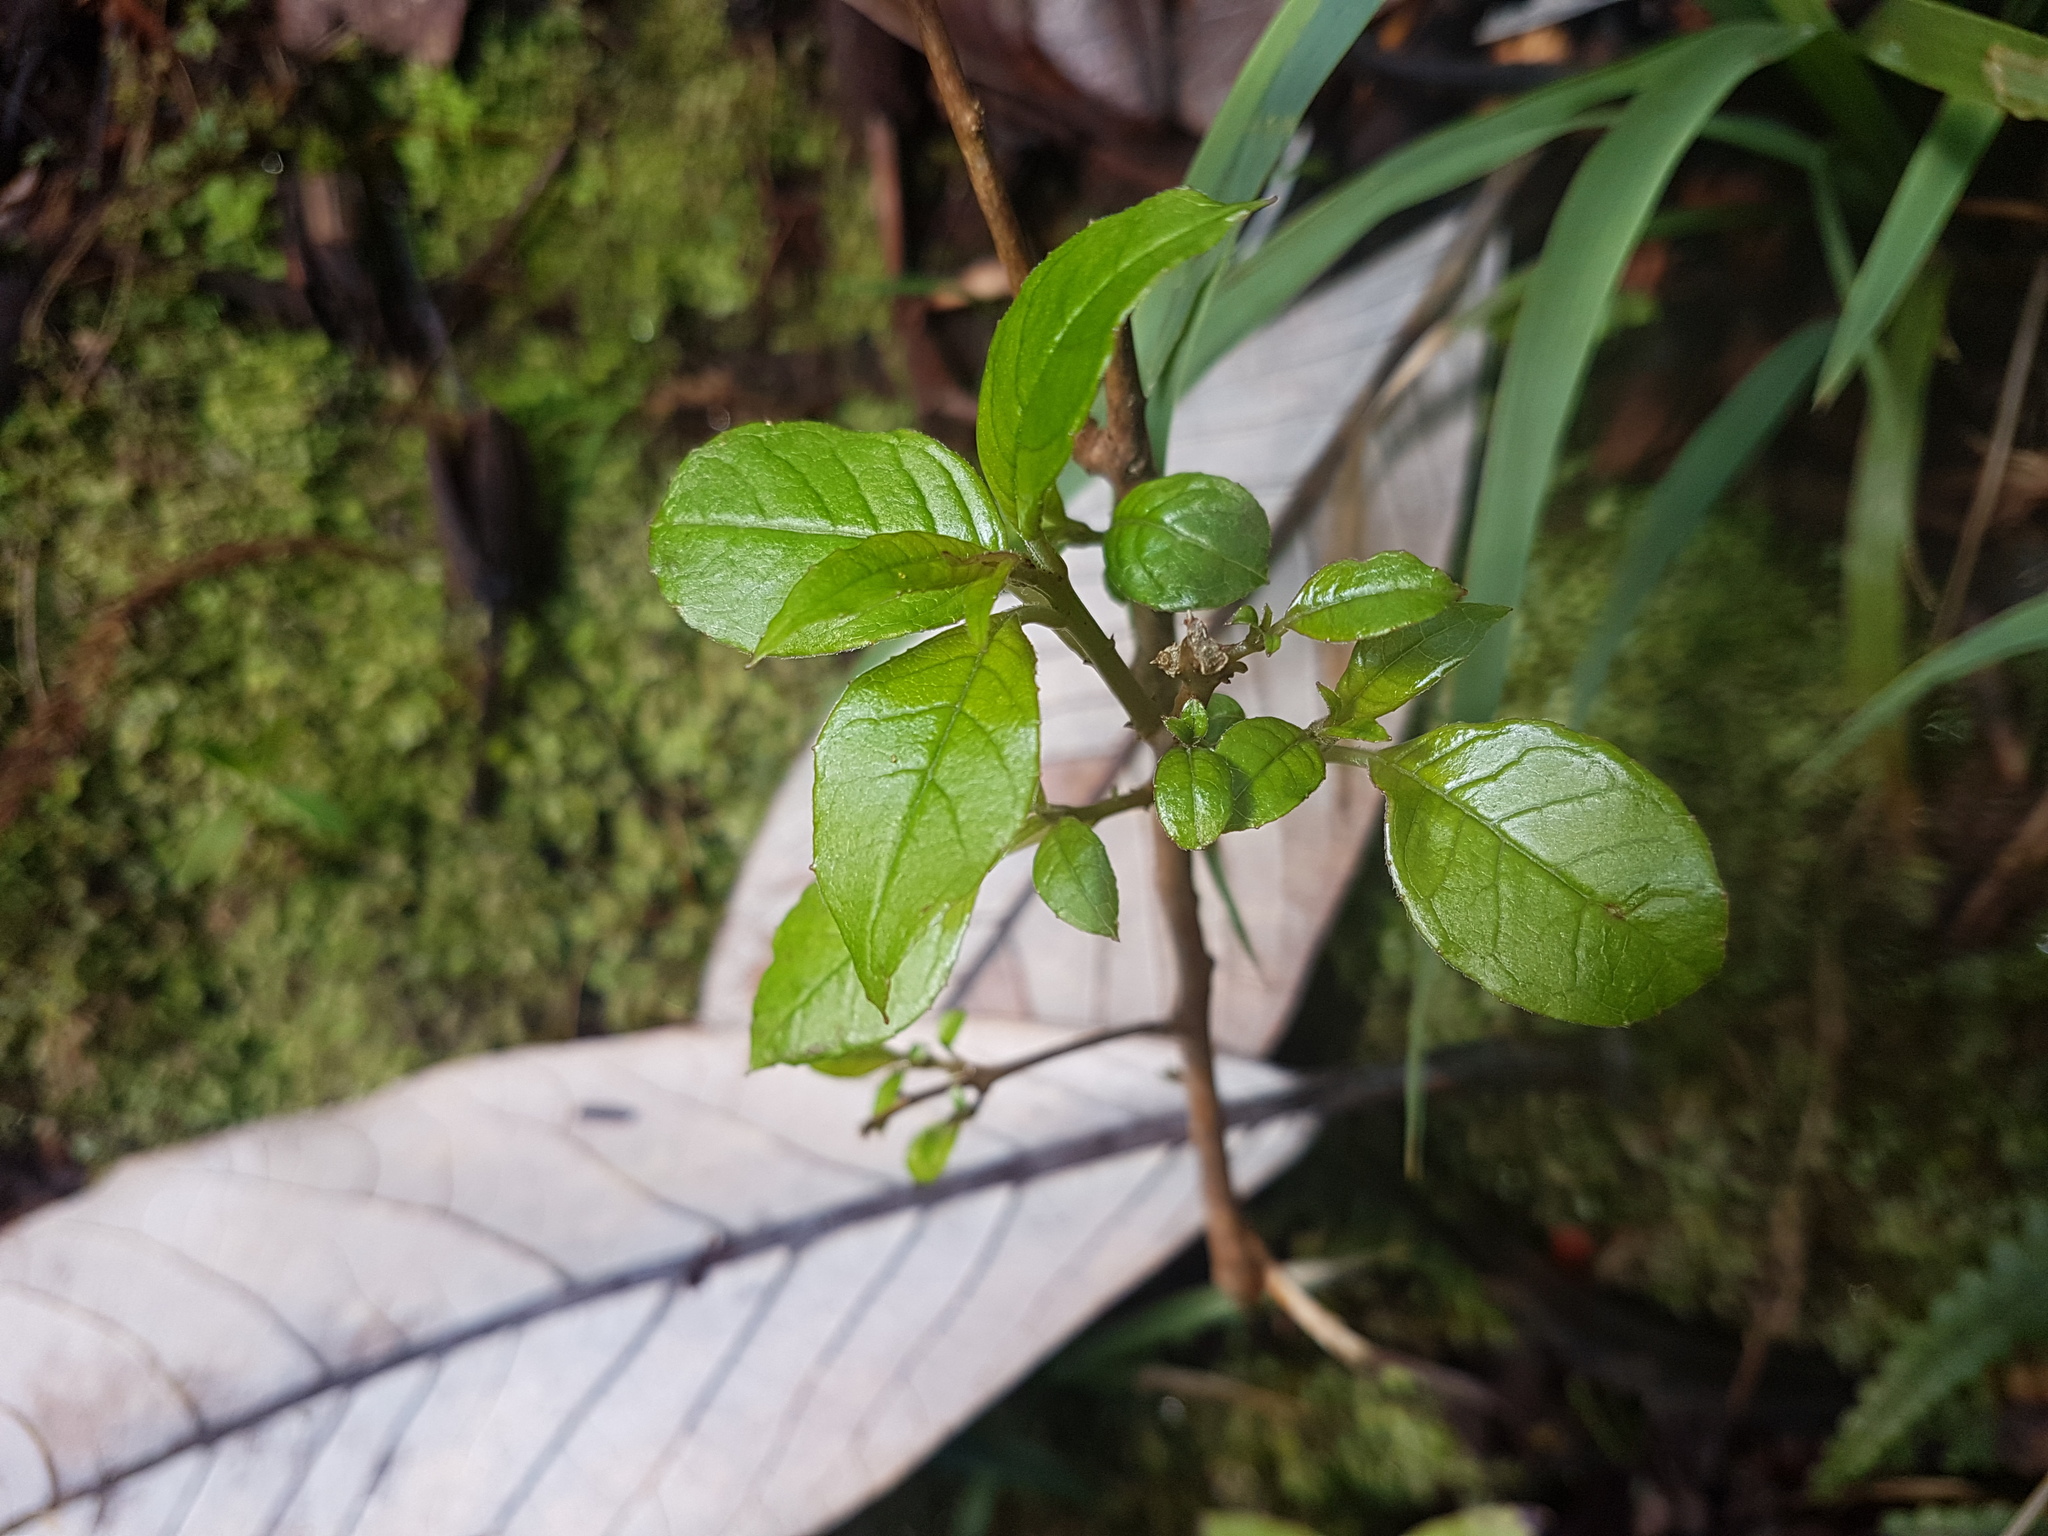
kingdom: Plantae
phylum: Tracheophyta
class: Magnoliopsida
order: Myrtales
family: Onagraceae
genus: Fuchsia
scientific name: Fuchsia excorticata
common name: Tree fuchsia
